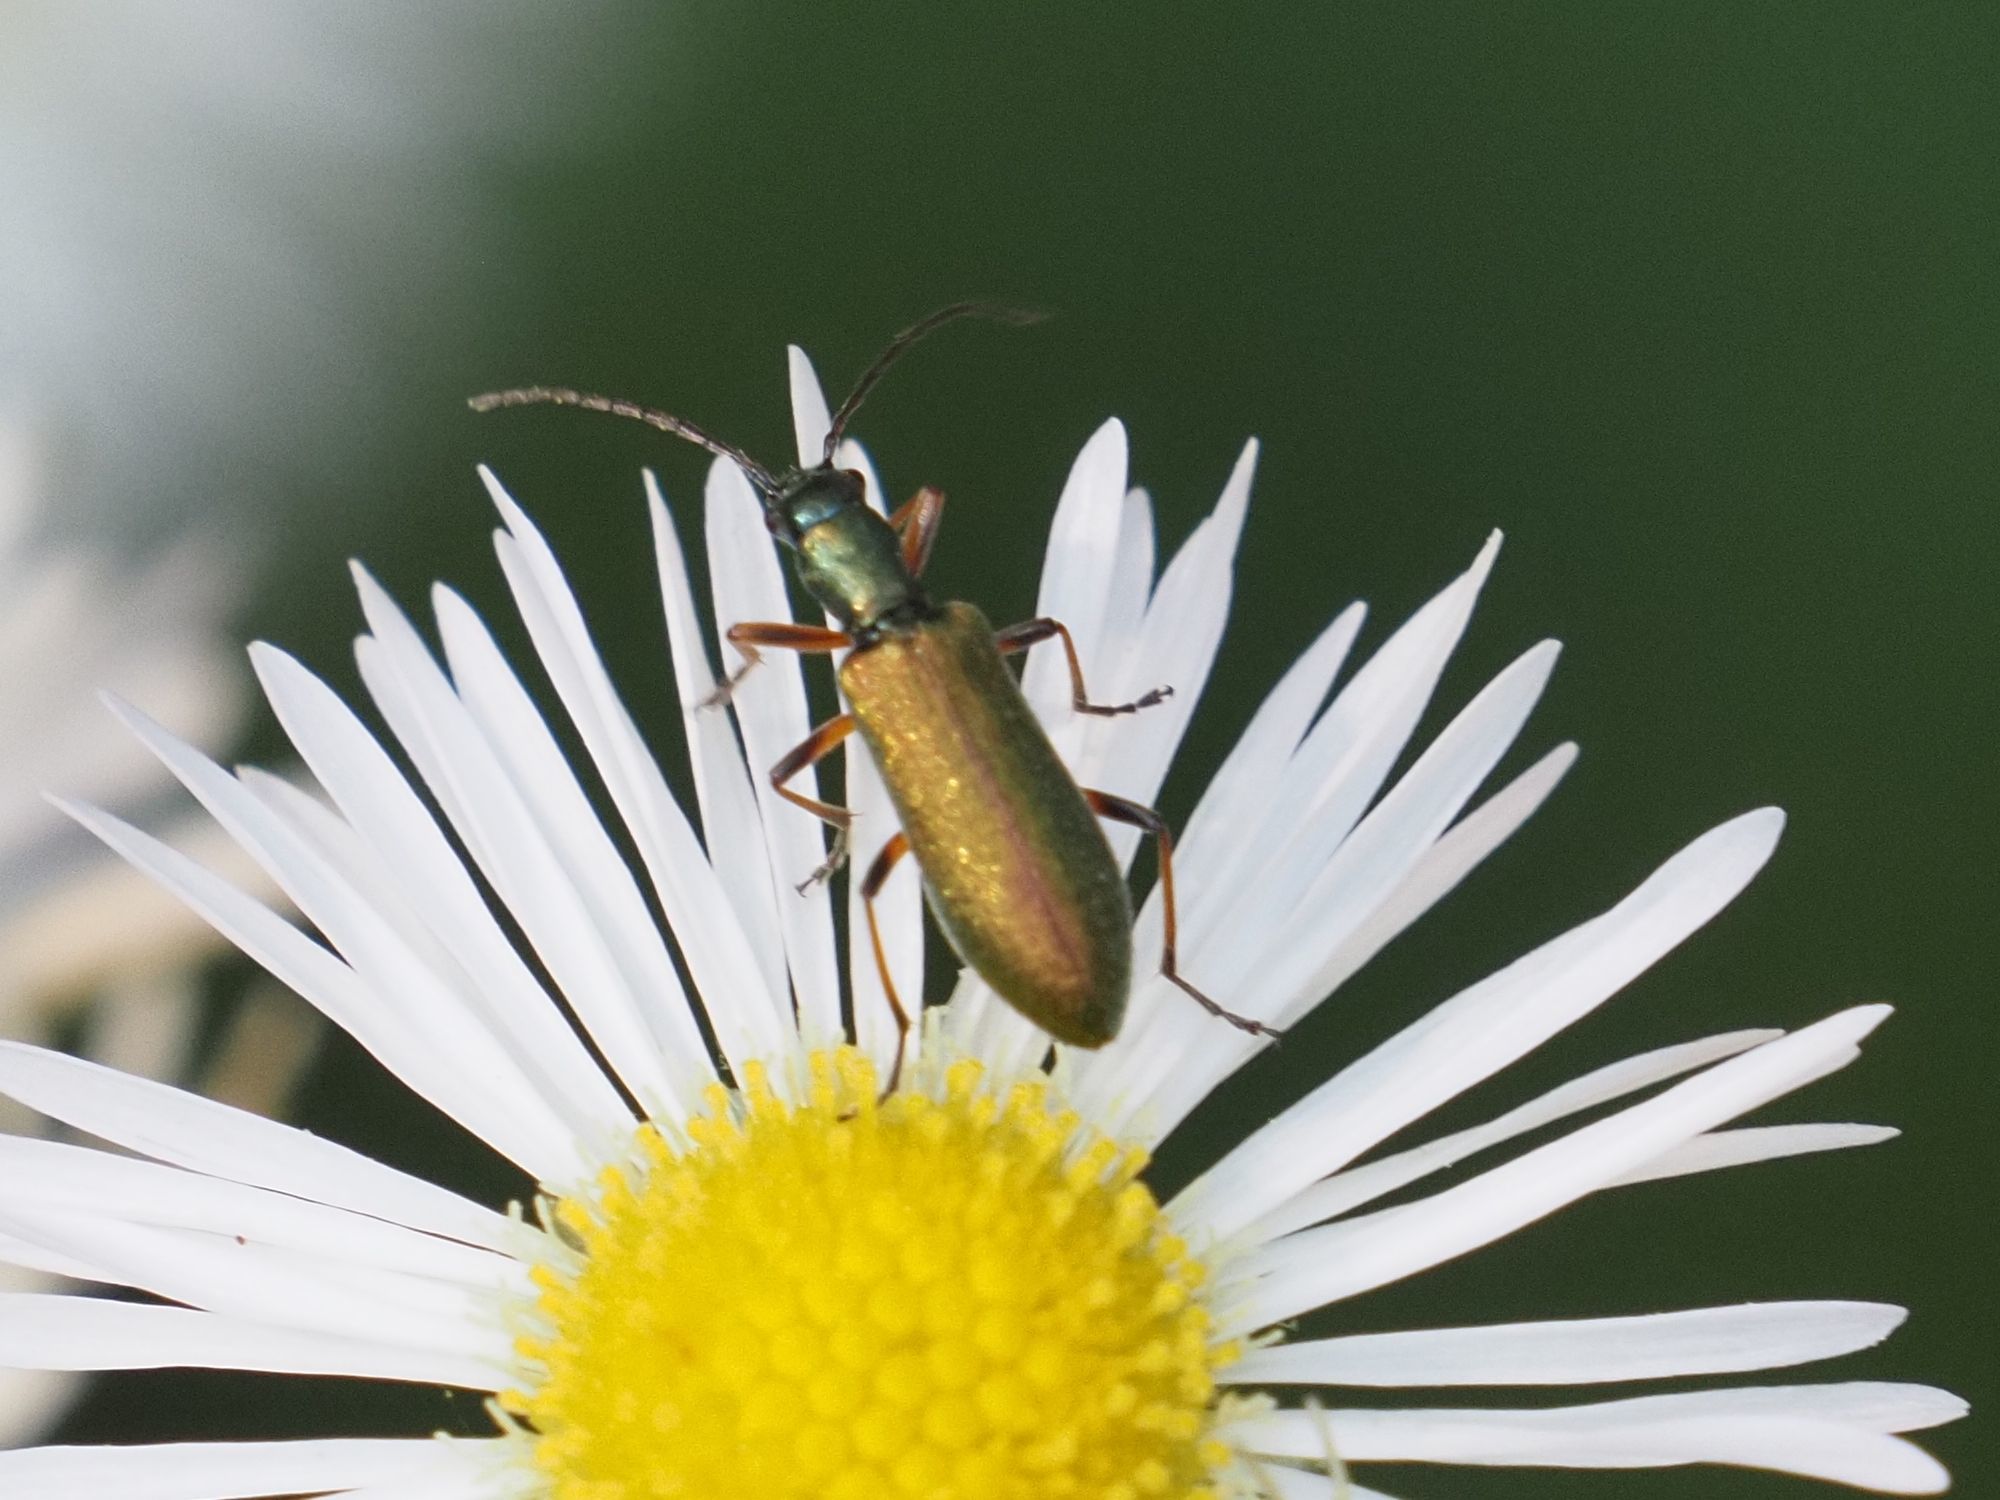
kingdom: Animalia
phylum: Arthropoda
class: Insecta
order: Coleoptera
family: Oedemeridae
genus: Chrysanthia
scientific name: Chrysanthia geniculata
